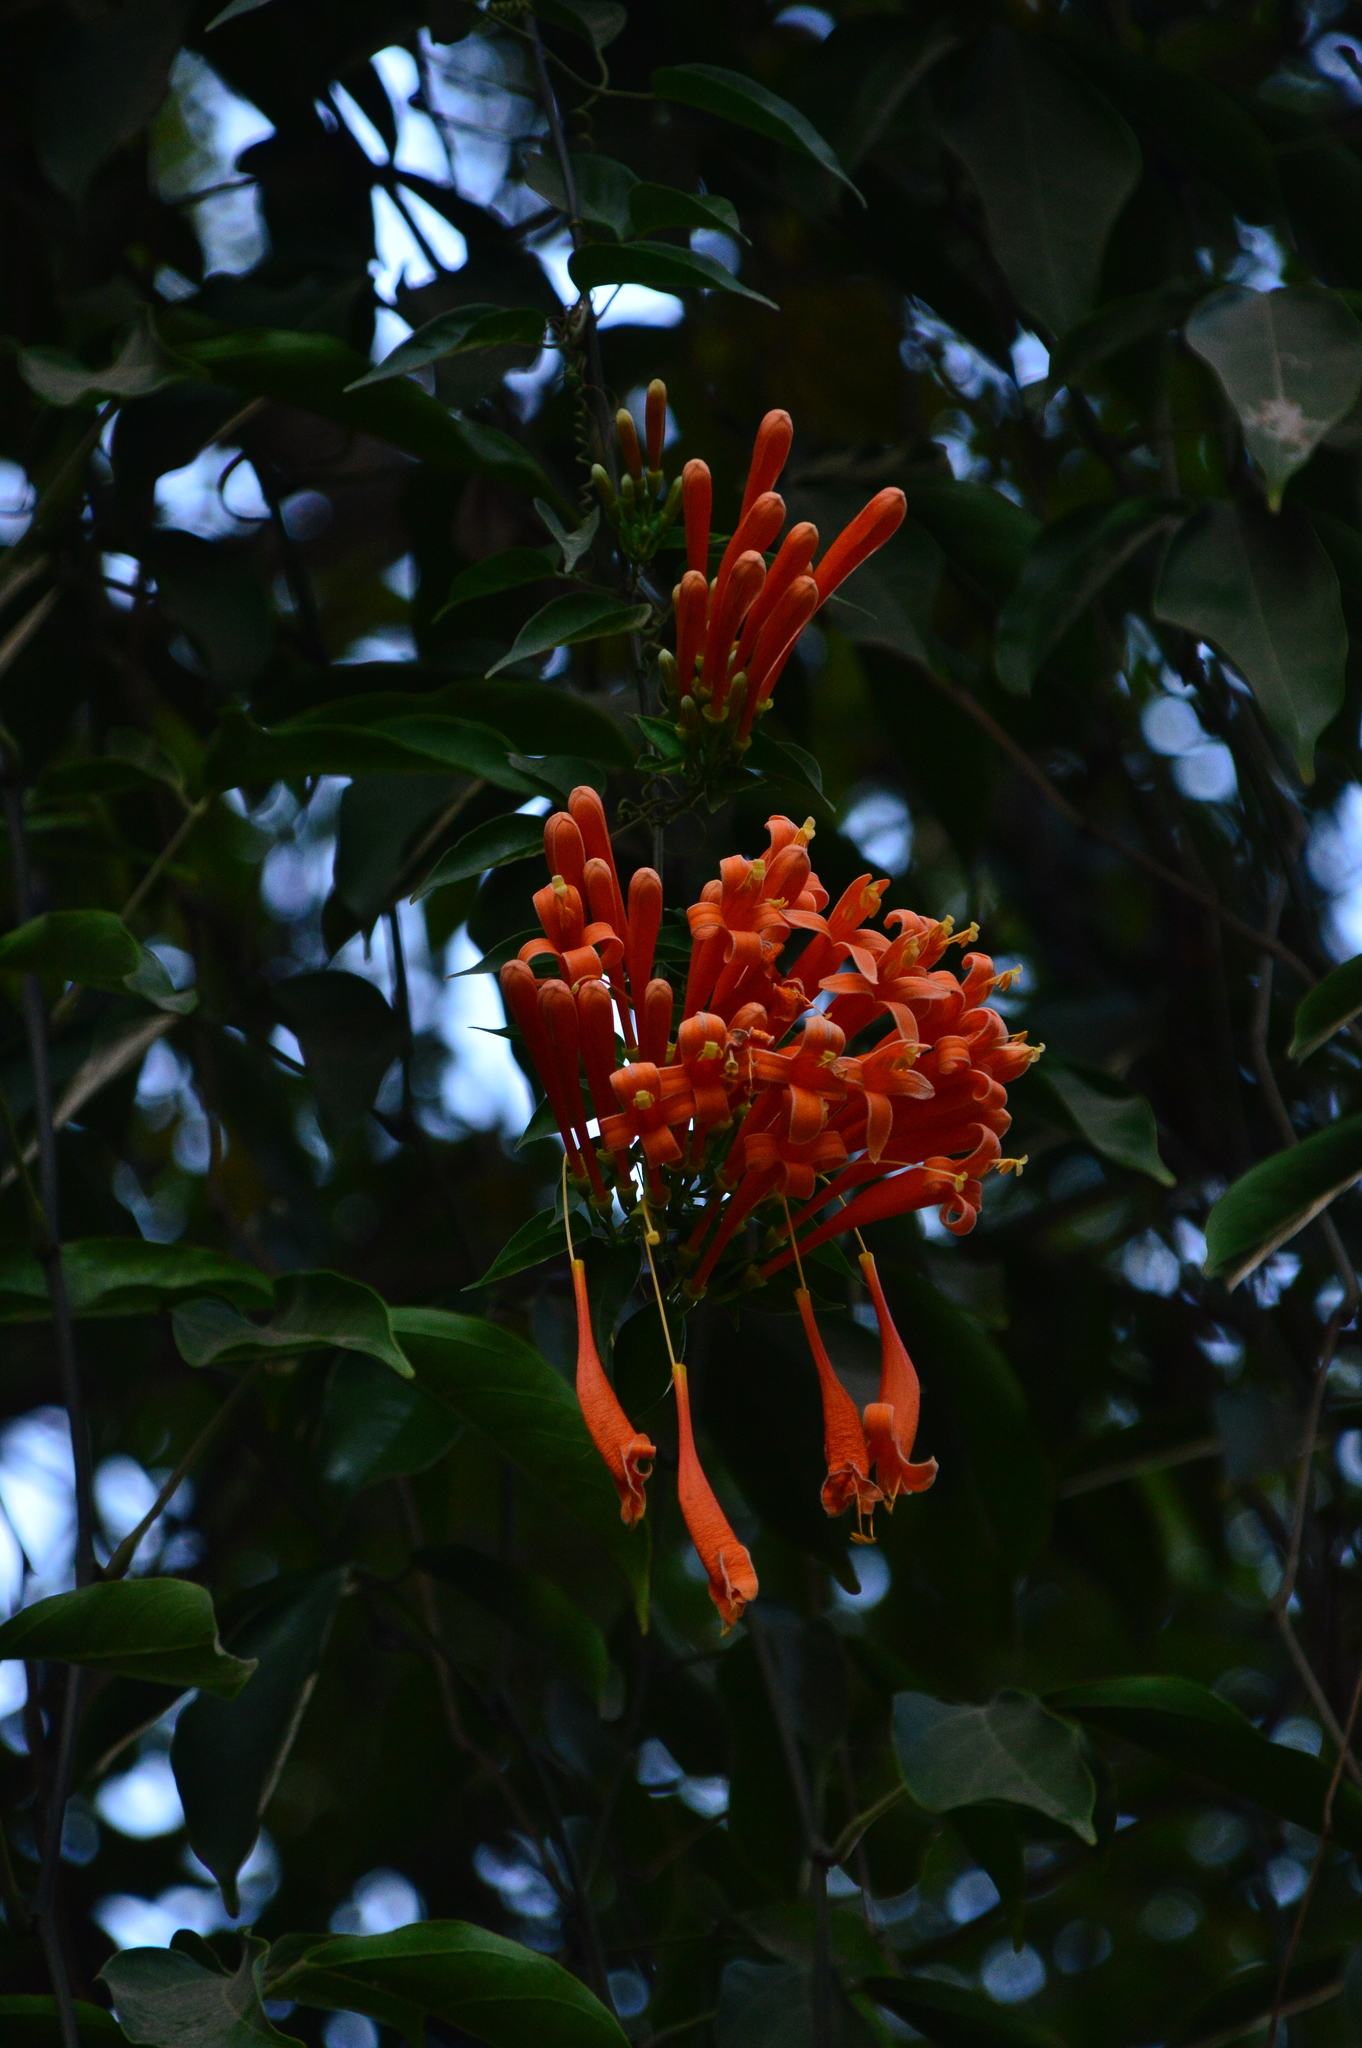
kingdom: Plantae
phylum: Tracheophyta
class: Magnoliopsida
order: Lamiales
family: Bignoniaceae
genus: Pyrostegia
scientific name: Pyrostegia venusta
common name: Flamevine
